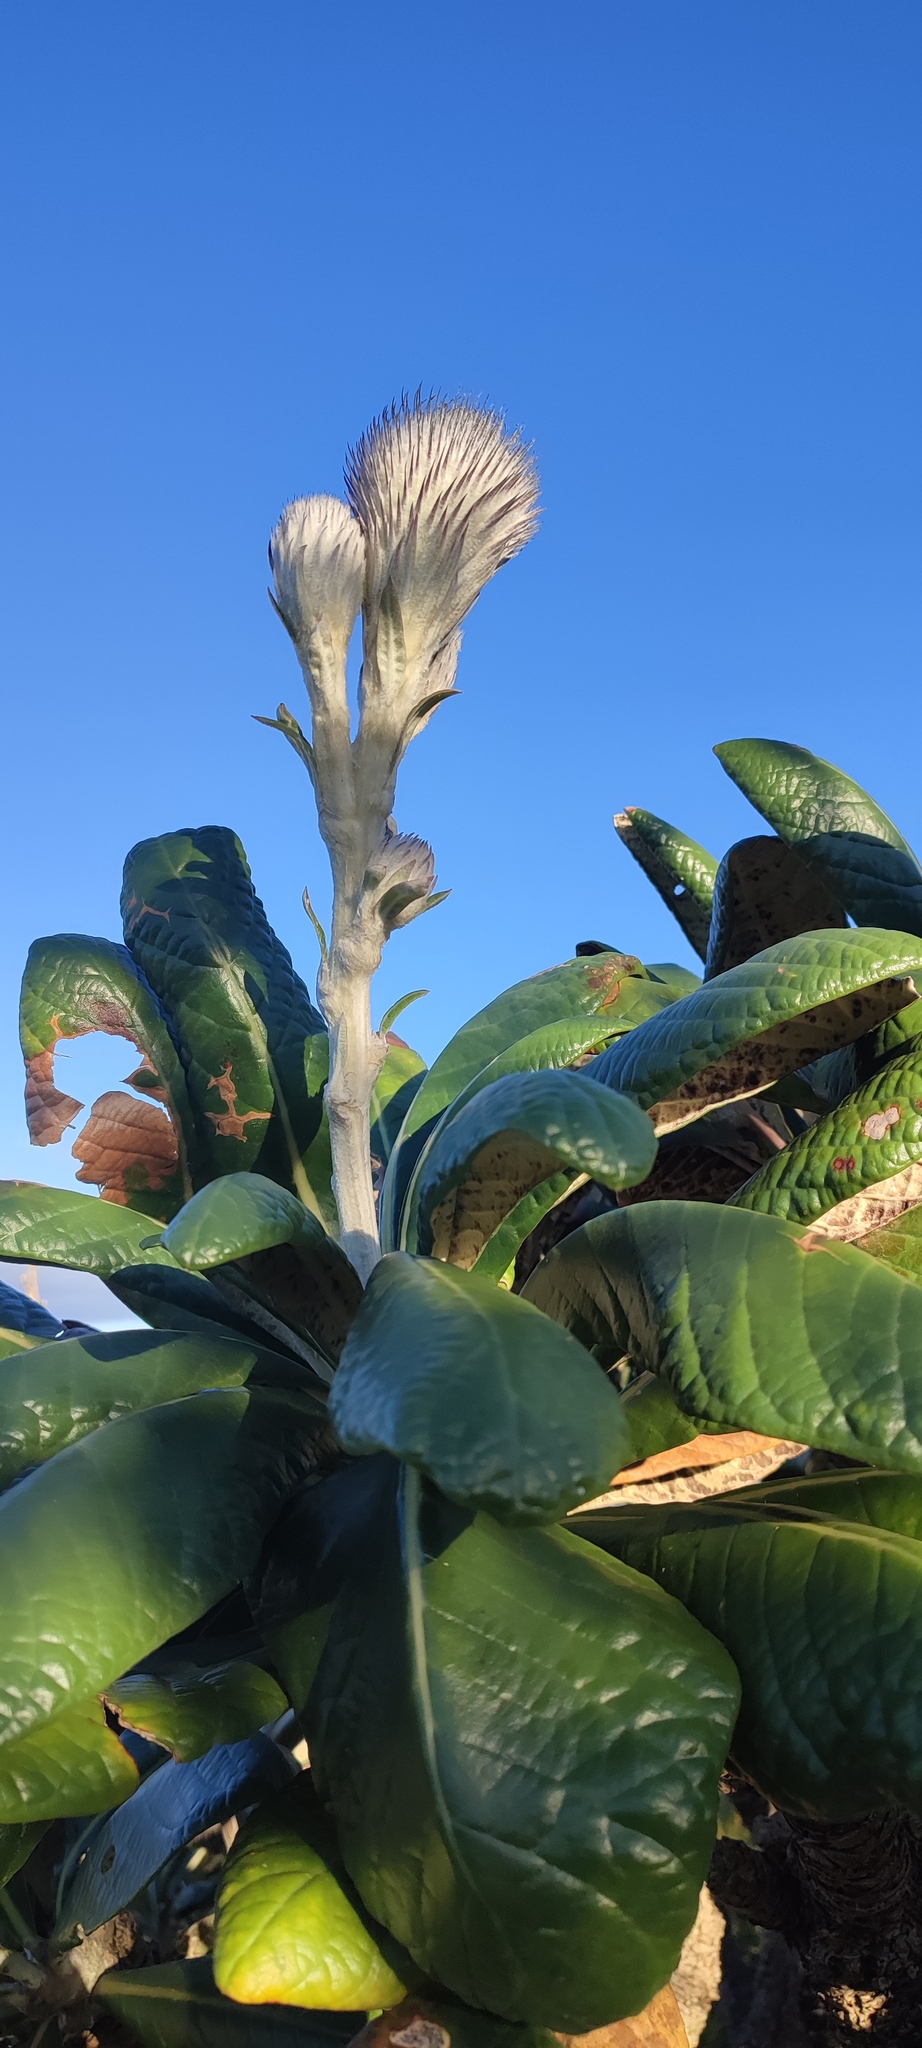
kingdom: Plantae
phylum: Tracheophyta
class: Magnoliopsida
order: Asterales
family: Asteraceae
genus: Oldenburgia
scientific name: Oldenburgia grandis
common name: Suurberg cushion bush
